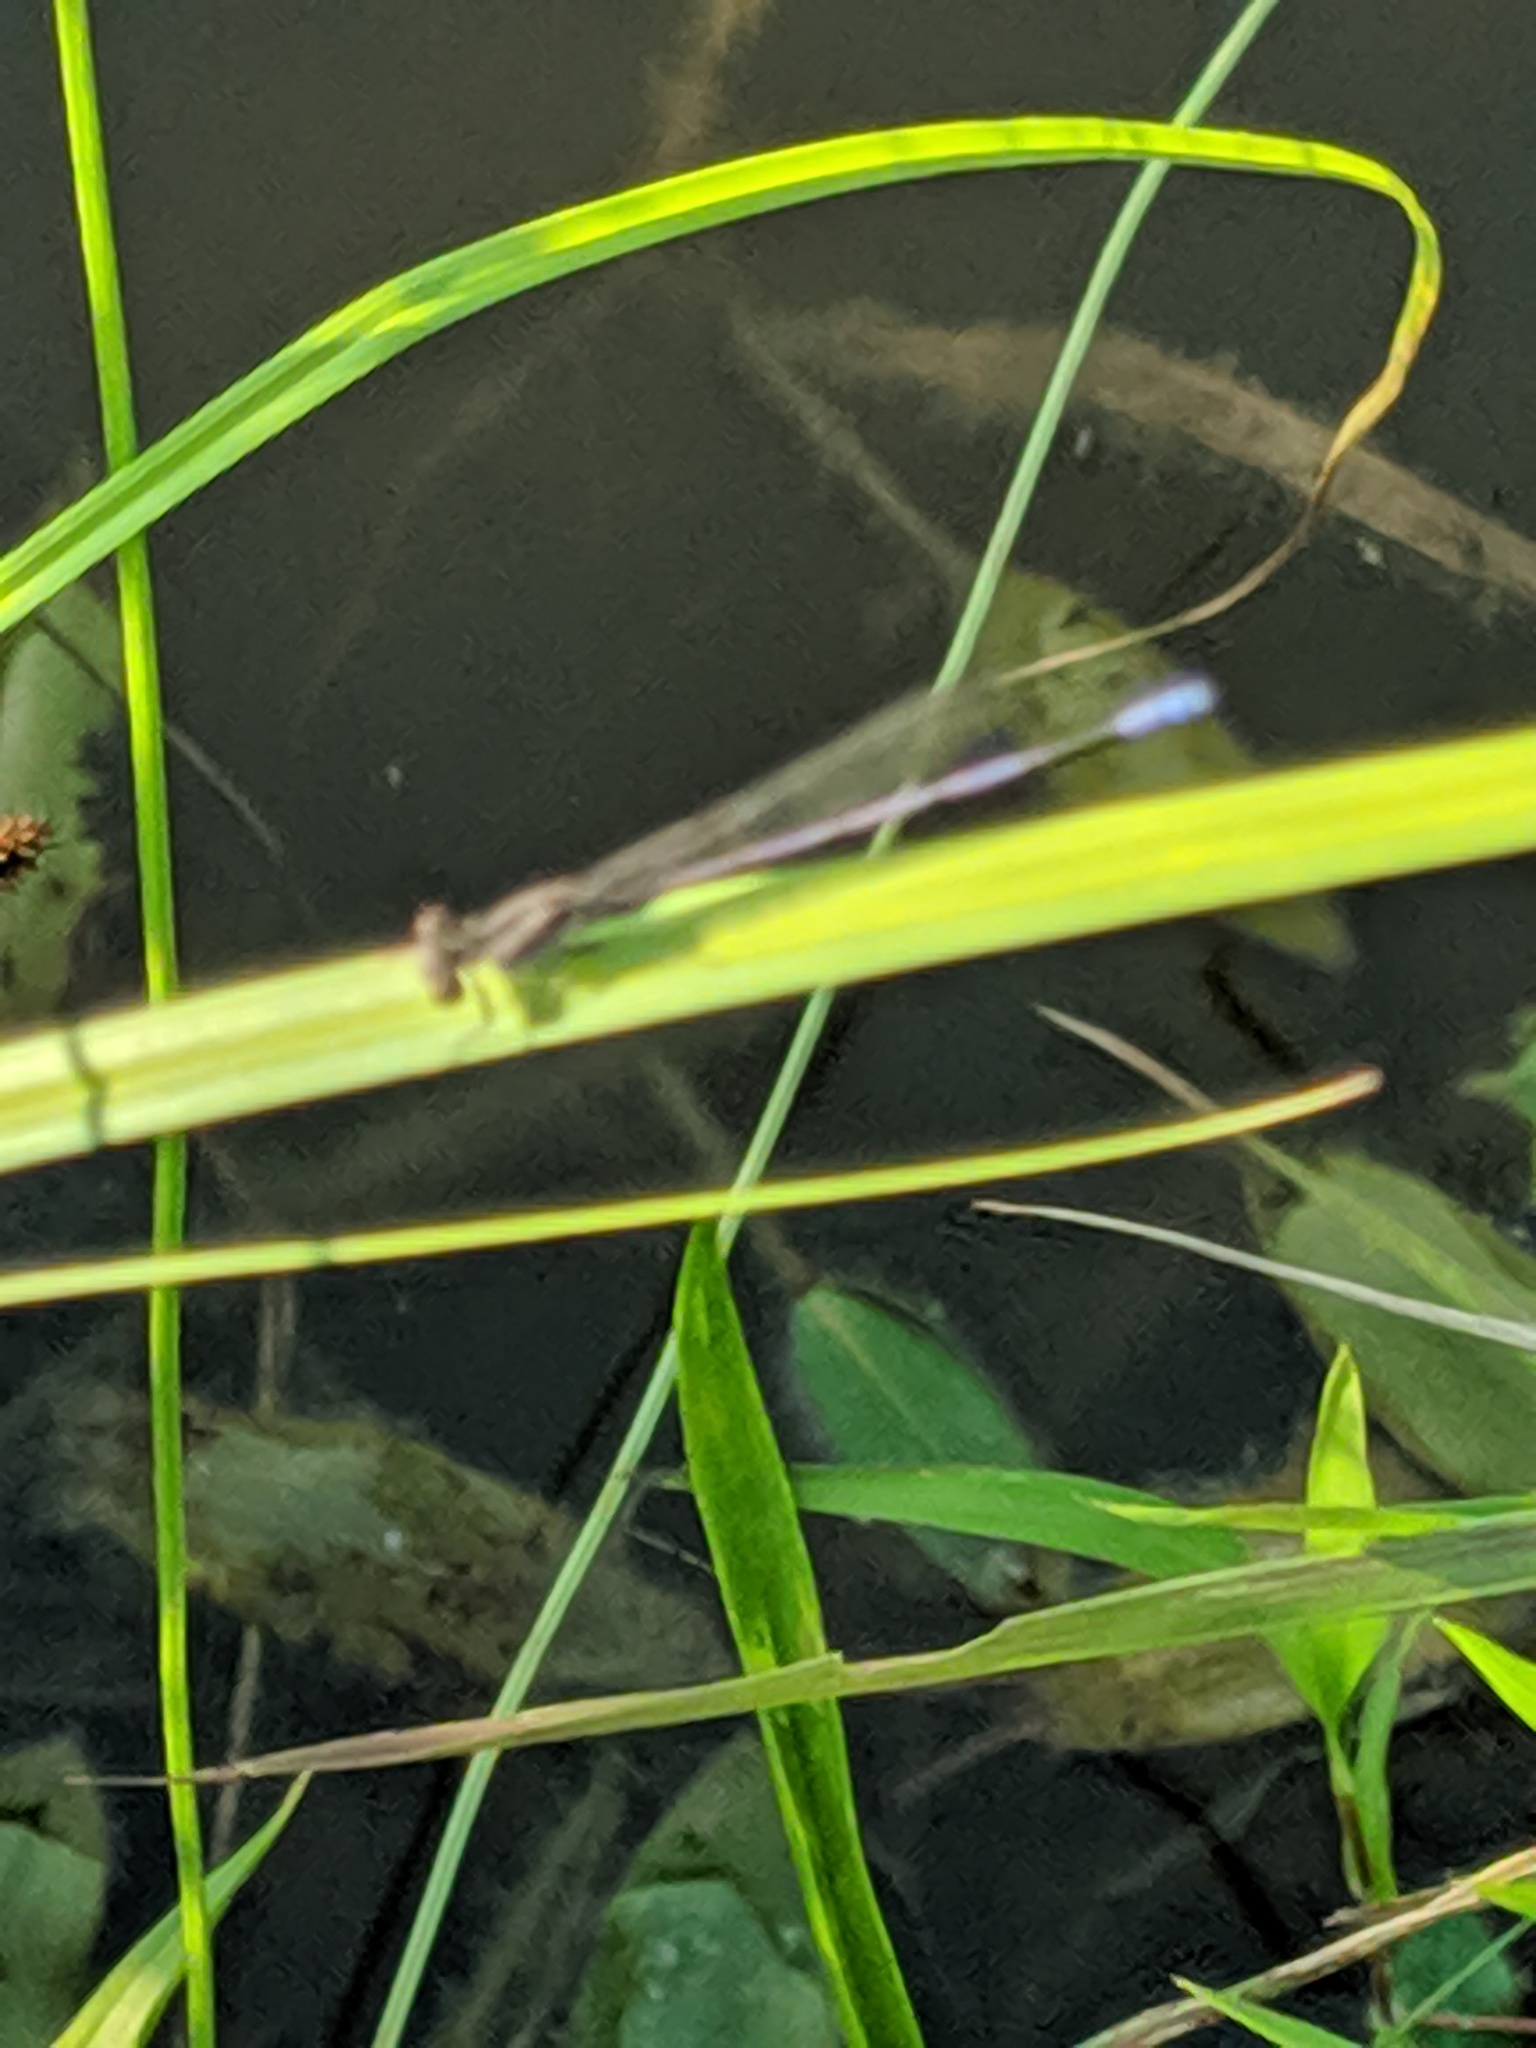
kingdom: Animalia
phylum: Arthropoda
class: Insecta
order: Odonata
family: Coenagrionidae
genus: Argia
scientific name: Argia fumipennis
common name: Variable dancer
